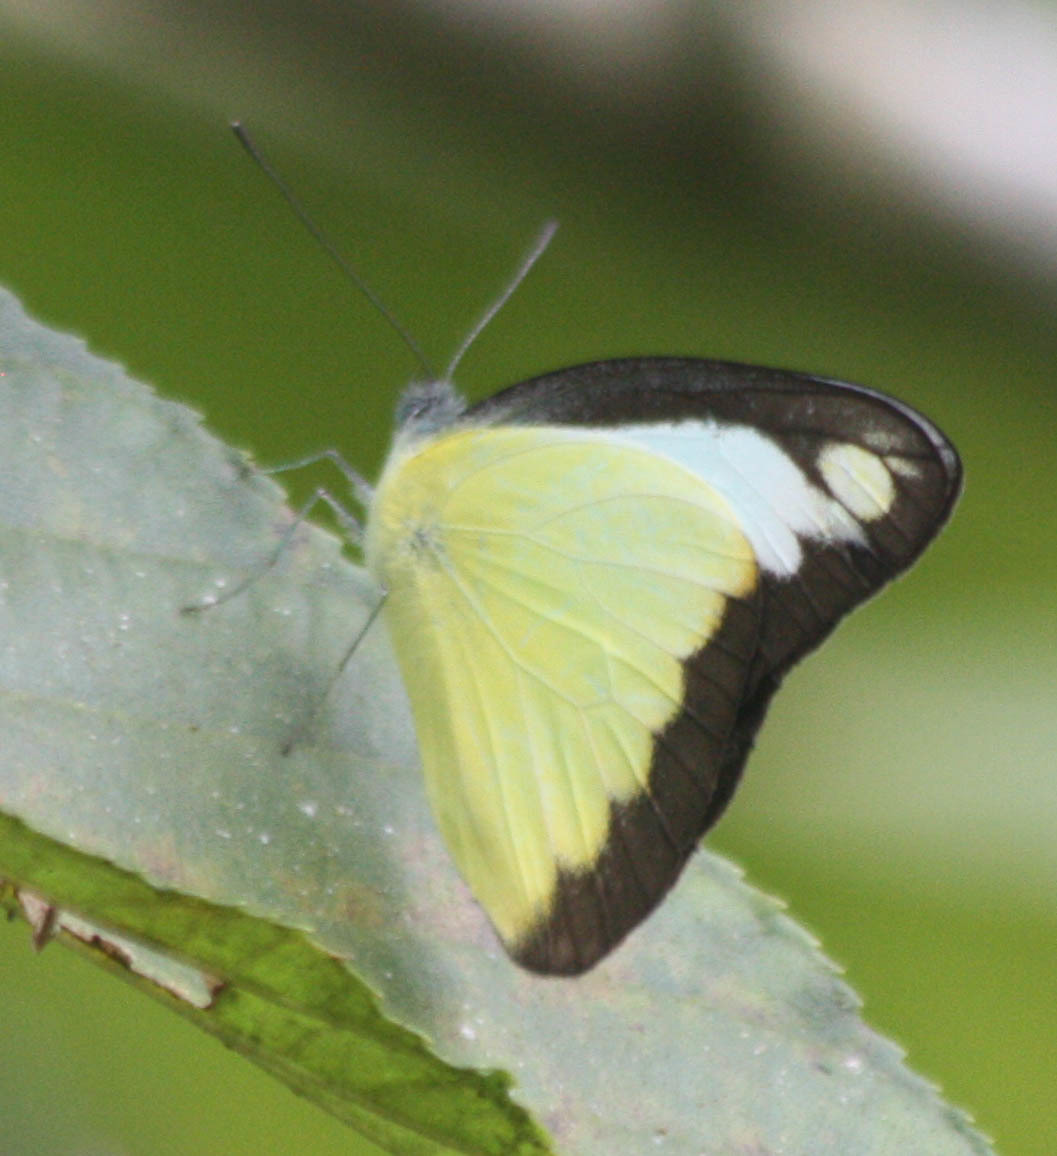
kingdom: Animalia
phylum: Arthropoda
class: Insecta
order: Lepidoptera
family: Pieridae
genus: Appias
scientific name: Appias lyncida
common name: Chocolate albatross
